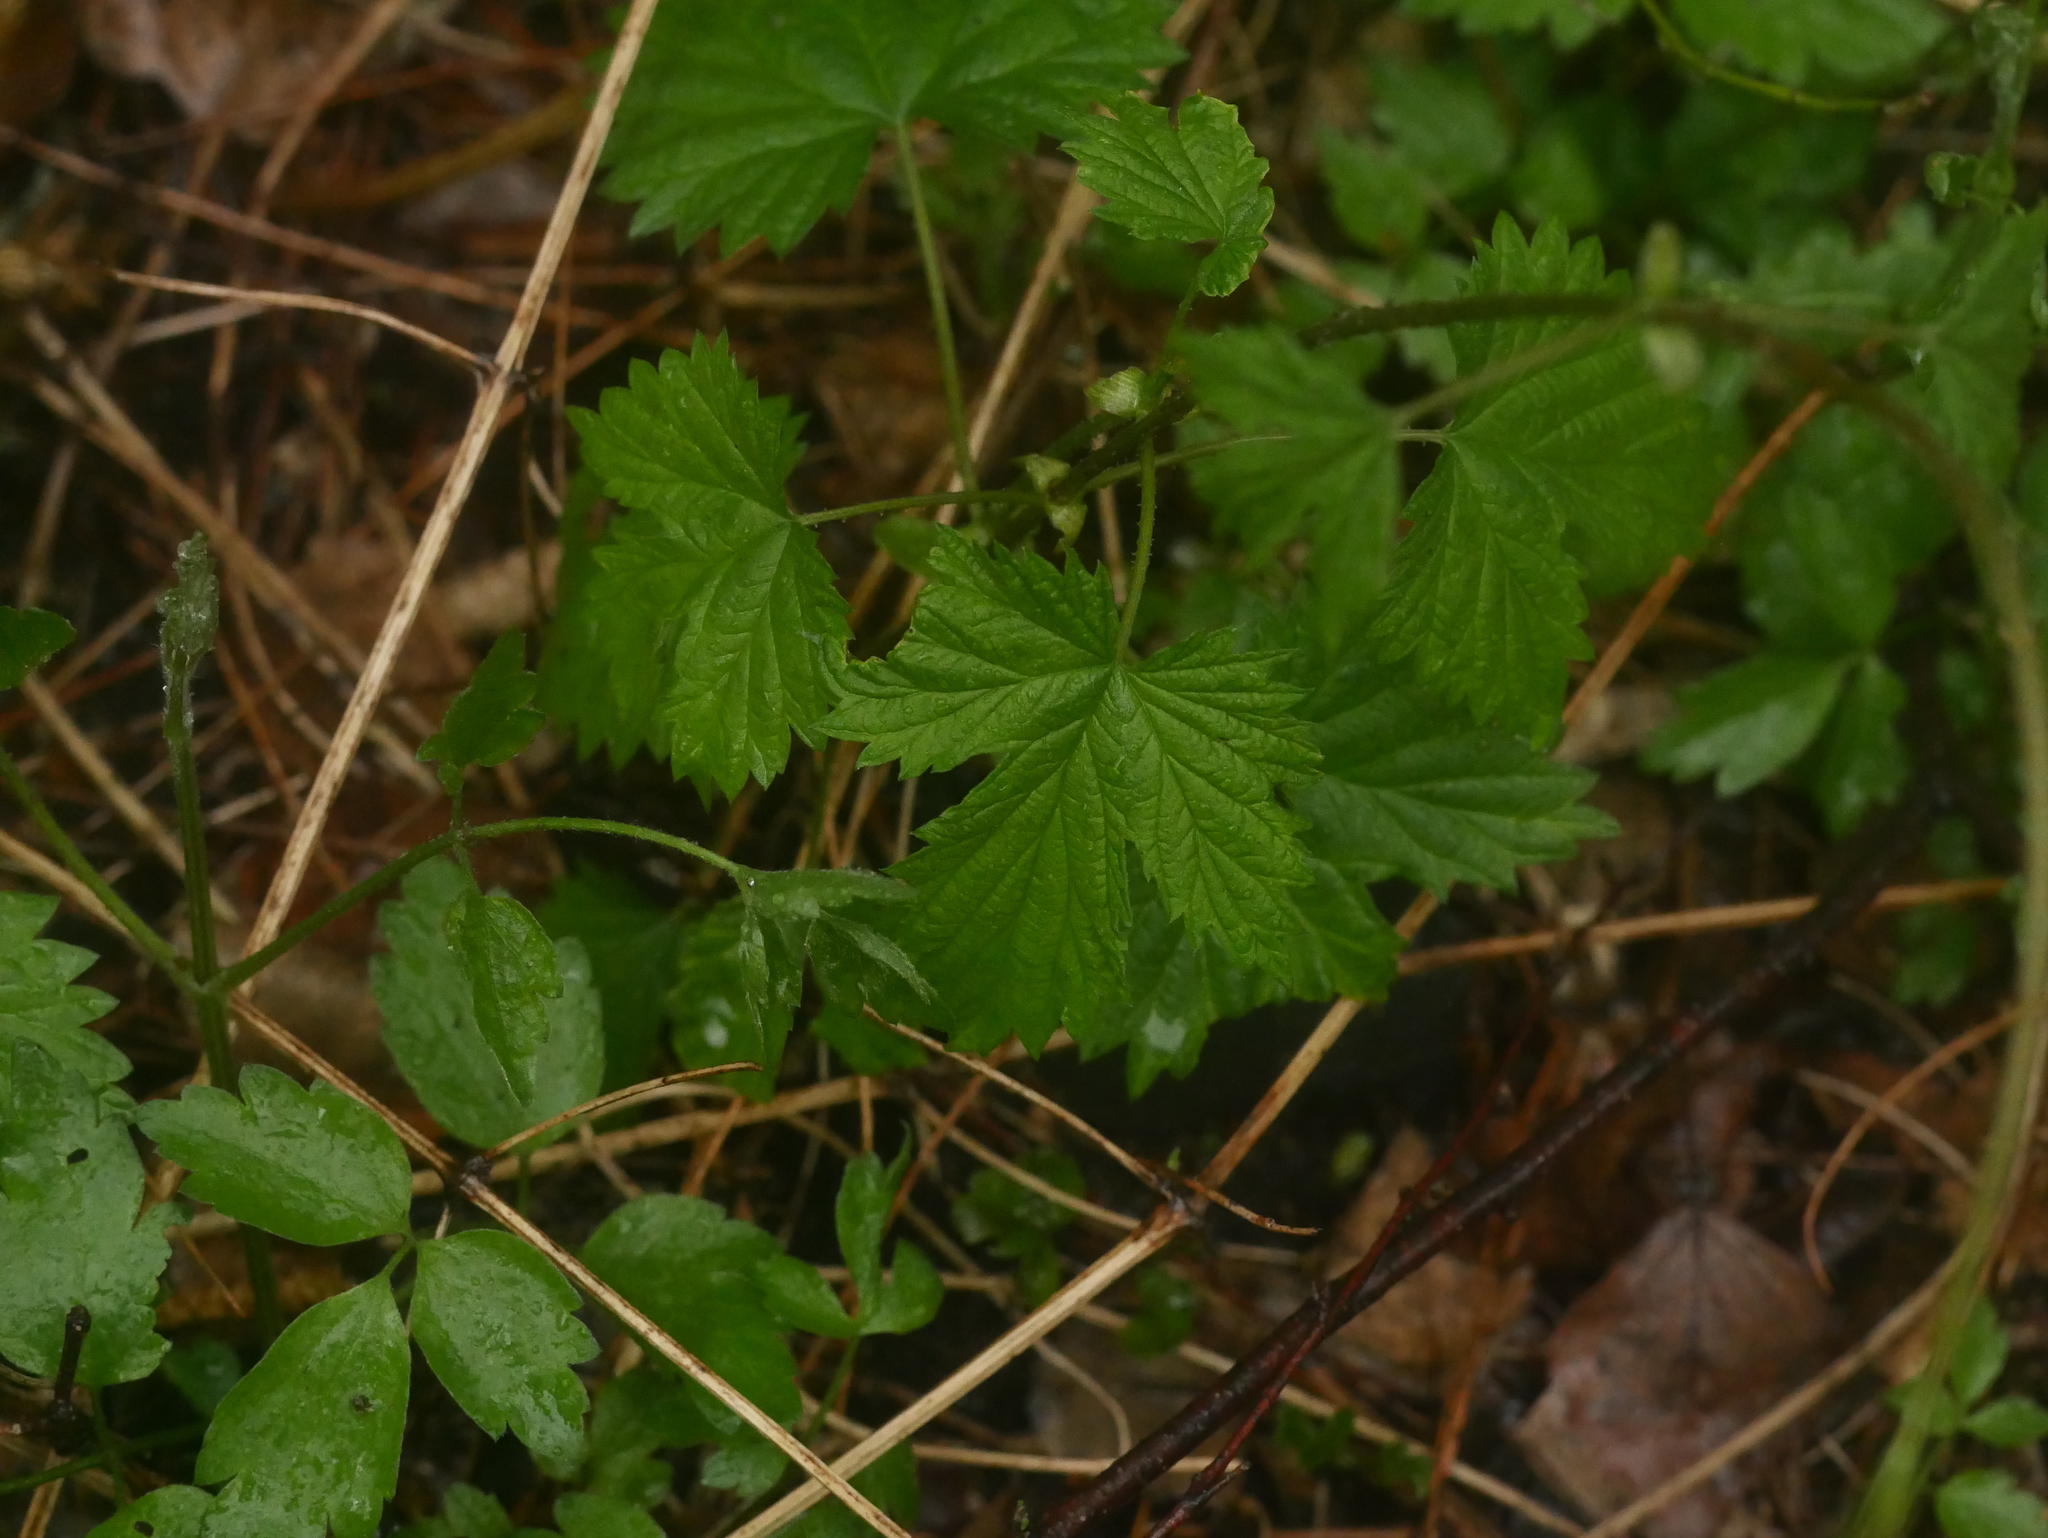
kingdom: Plantae
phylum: Tracheophyta
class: Magnoliopsida
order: Rosales
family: Rosaceae
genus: Geum
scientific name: Geum urbanum
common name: Wood avens
